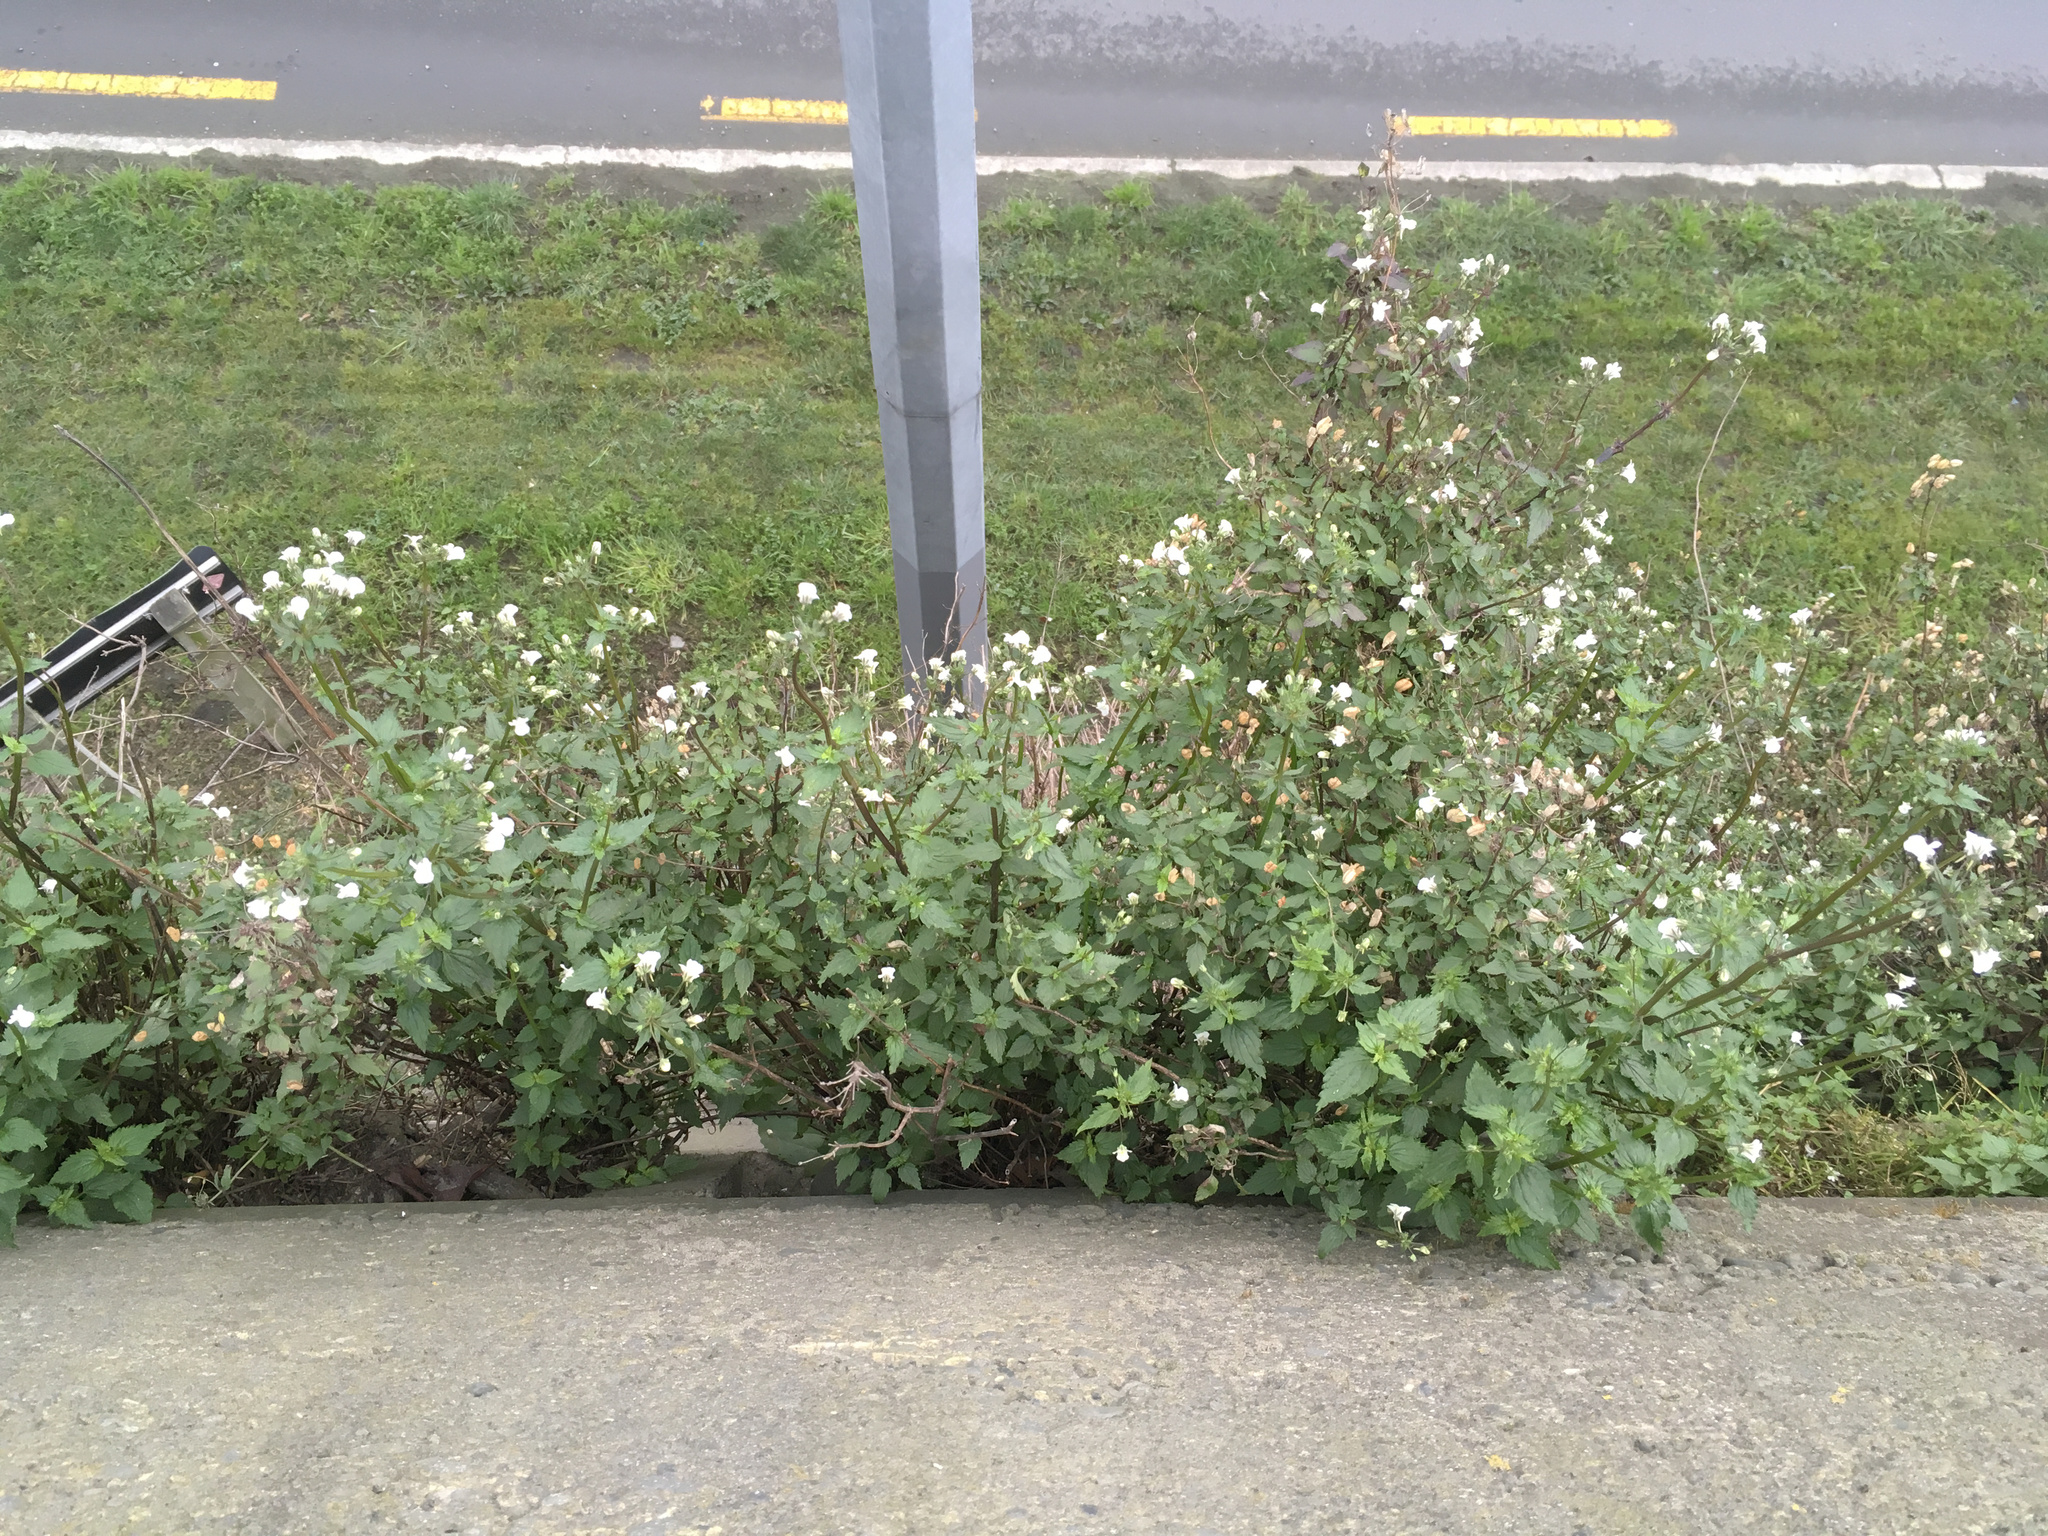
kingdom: Plantae
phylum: Tracheophyta
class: Magnoliopsida
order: Lamiales
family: Scrophulariaceae
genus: Nemesia
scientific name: Nemesia floribunda
